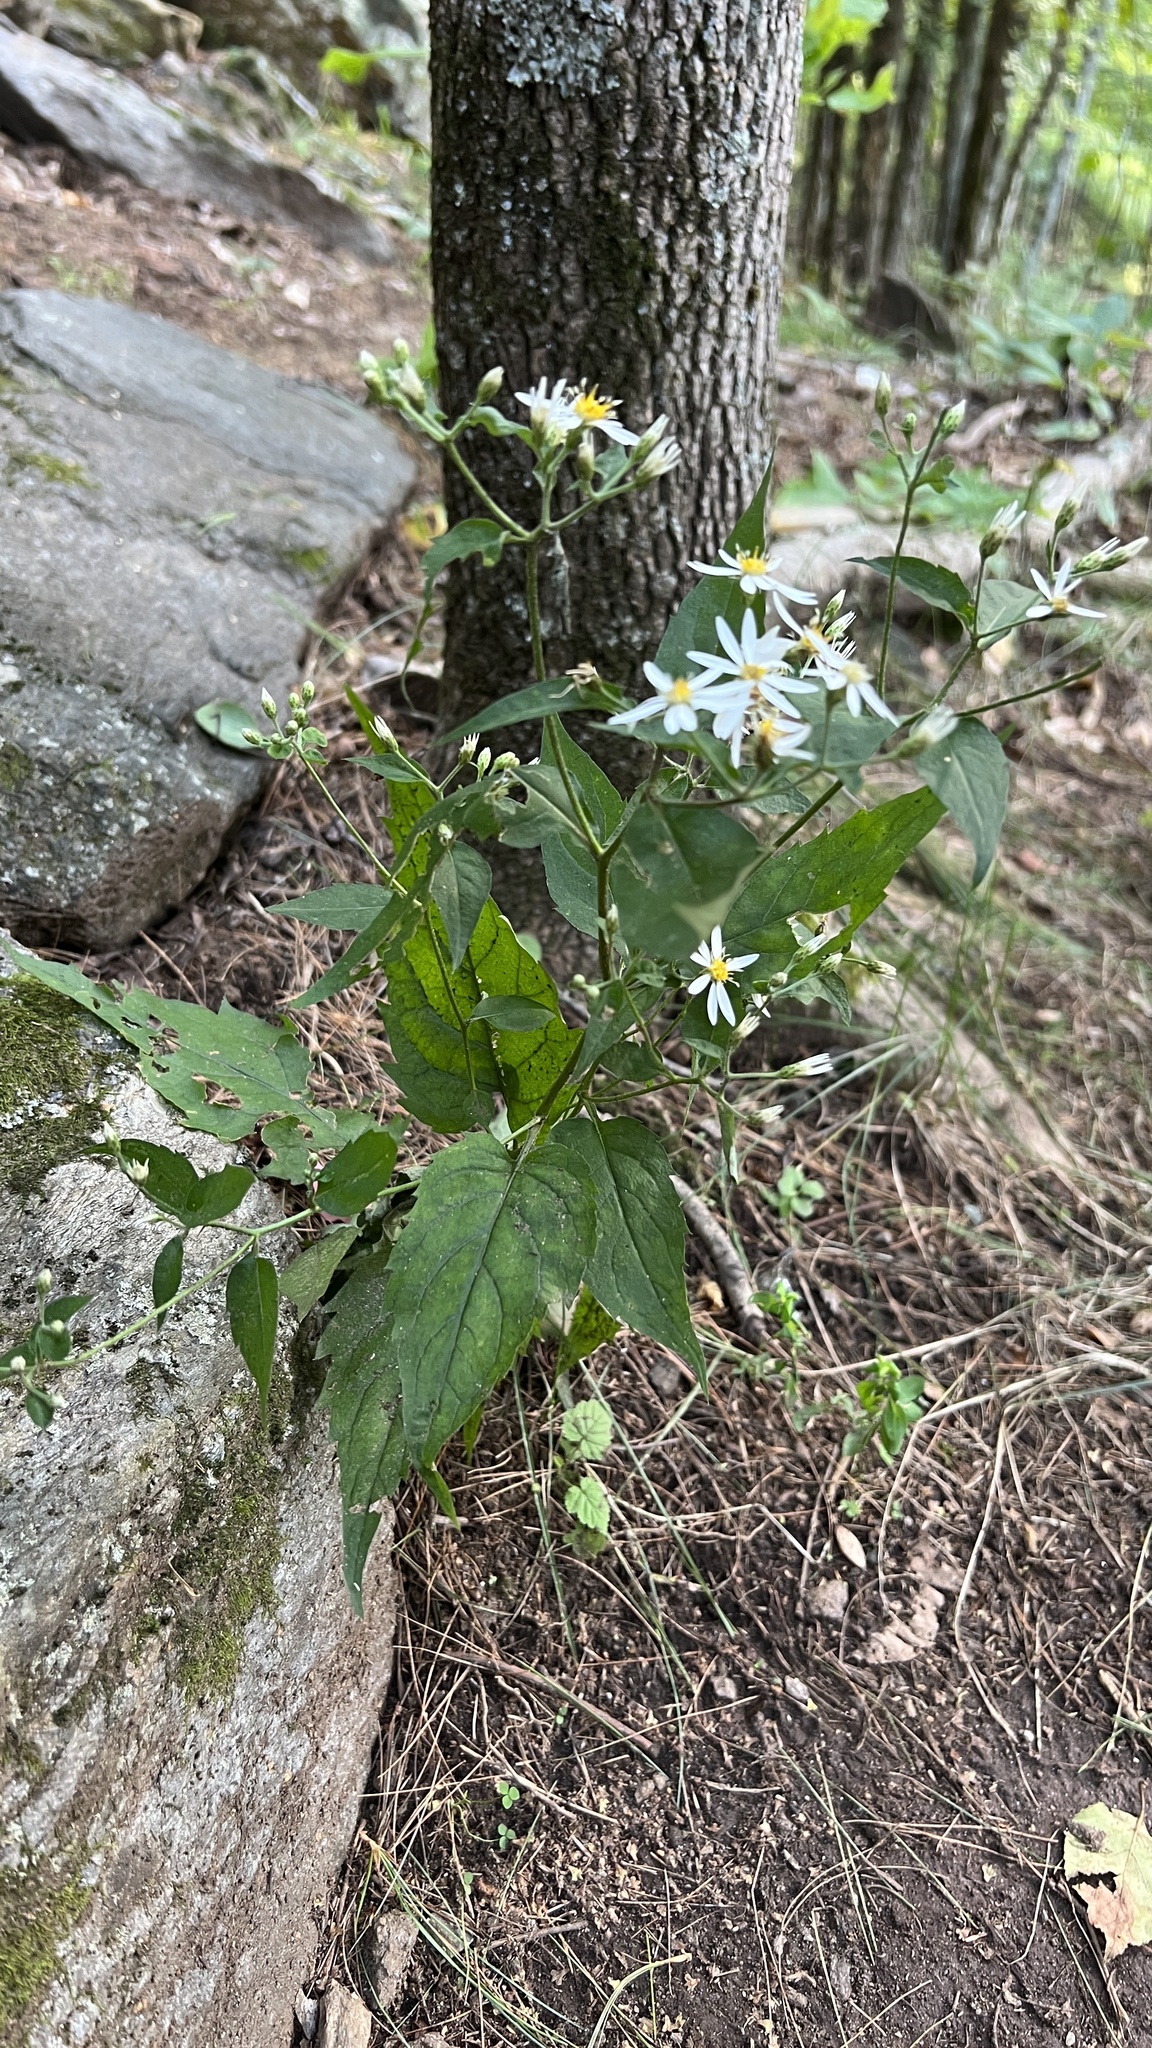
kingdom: Plantae
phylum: Tracheophyta
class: Magnoliopsida
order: Asterales
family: Asteraceae
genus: Eurybia
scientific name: Eurybia divaricata
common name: White wood aster
